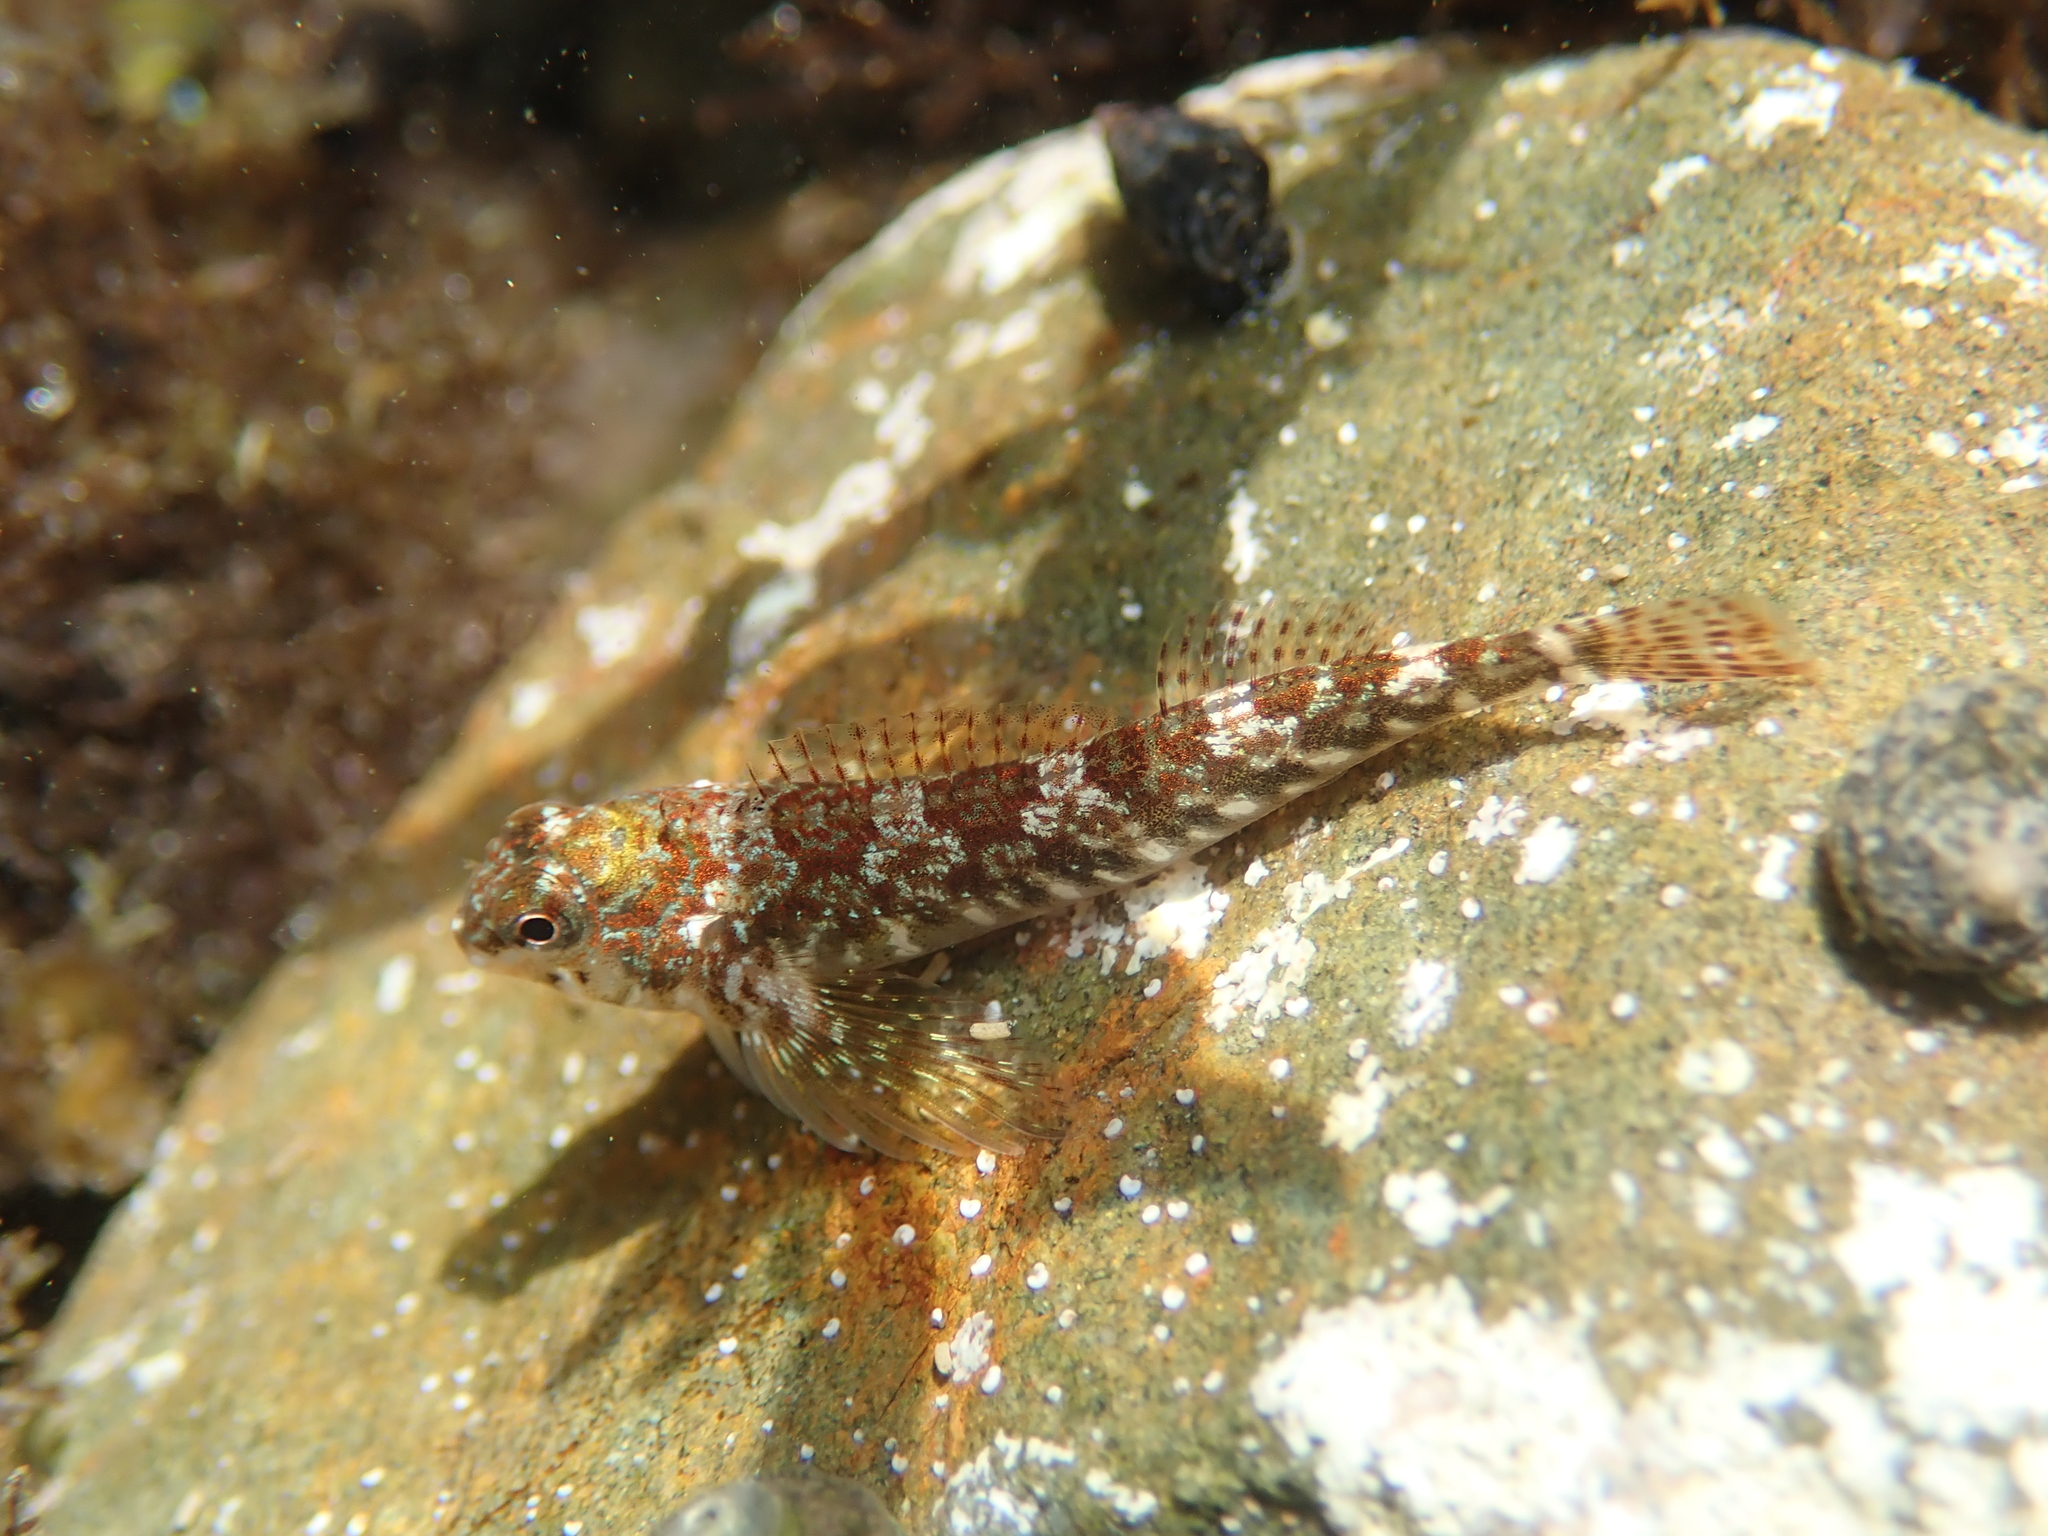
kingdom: Animalia
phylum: Chordata
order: Perciformes
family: Tripterygiidae
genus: Bellapiscis
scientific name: Bellapiscis lesleyae
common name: Mottled twister
